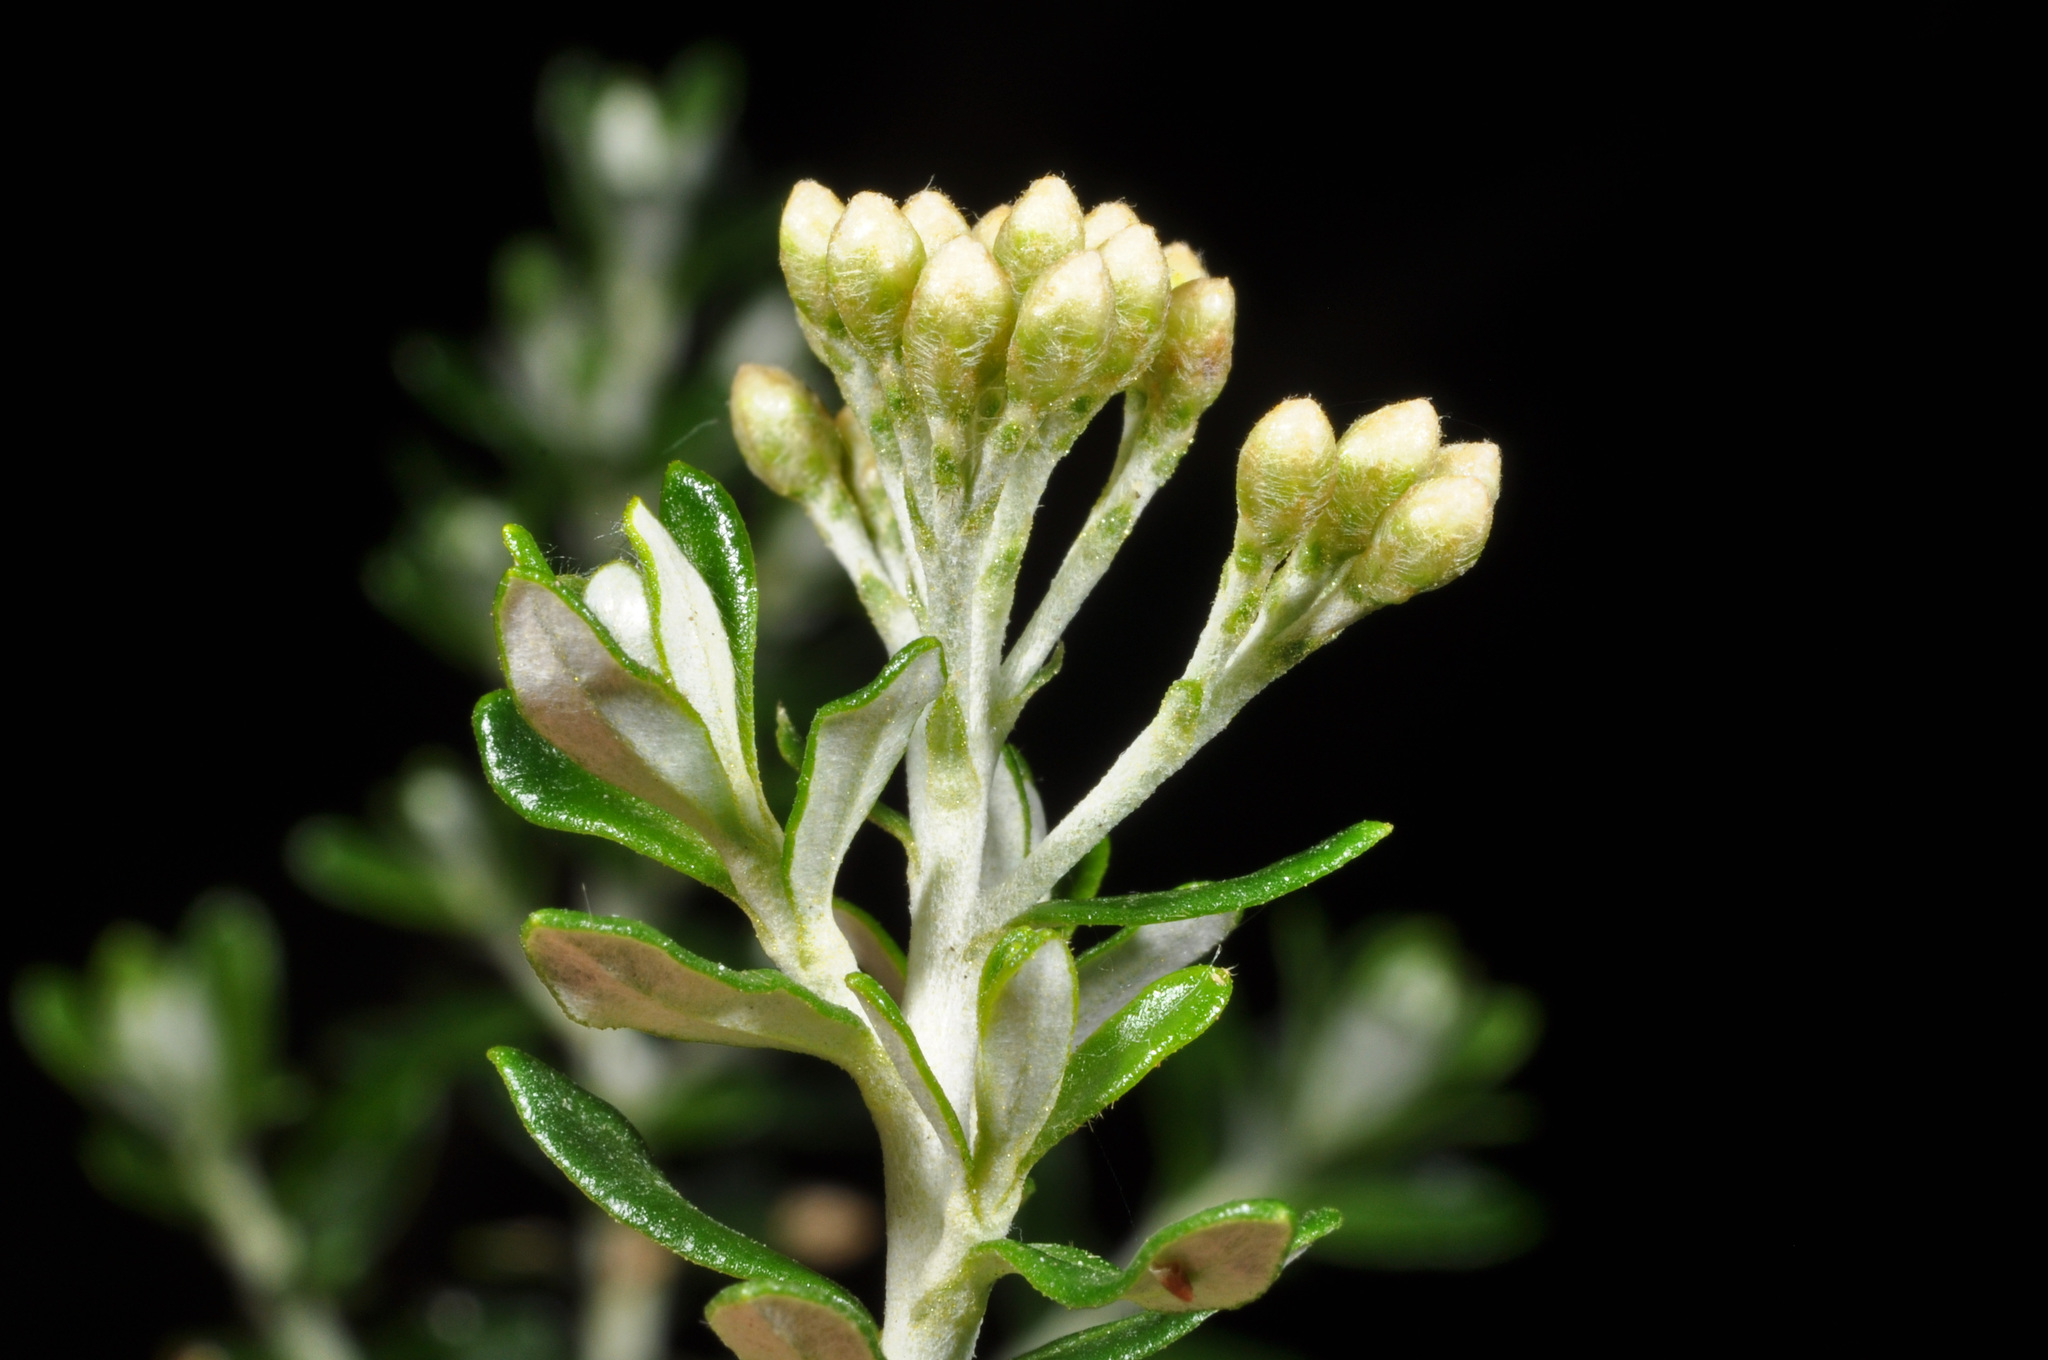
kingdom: Plantae
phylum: Tracheophyta
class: Magnoliopsida
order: Asterales
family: Asteraceae
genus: Ozothamnus
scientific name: Ozothamnus leptophyllus
